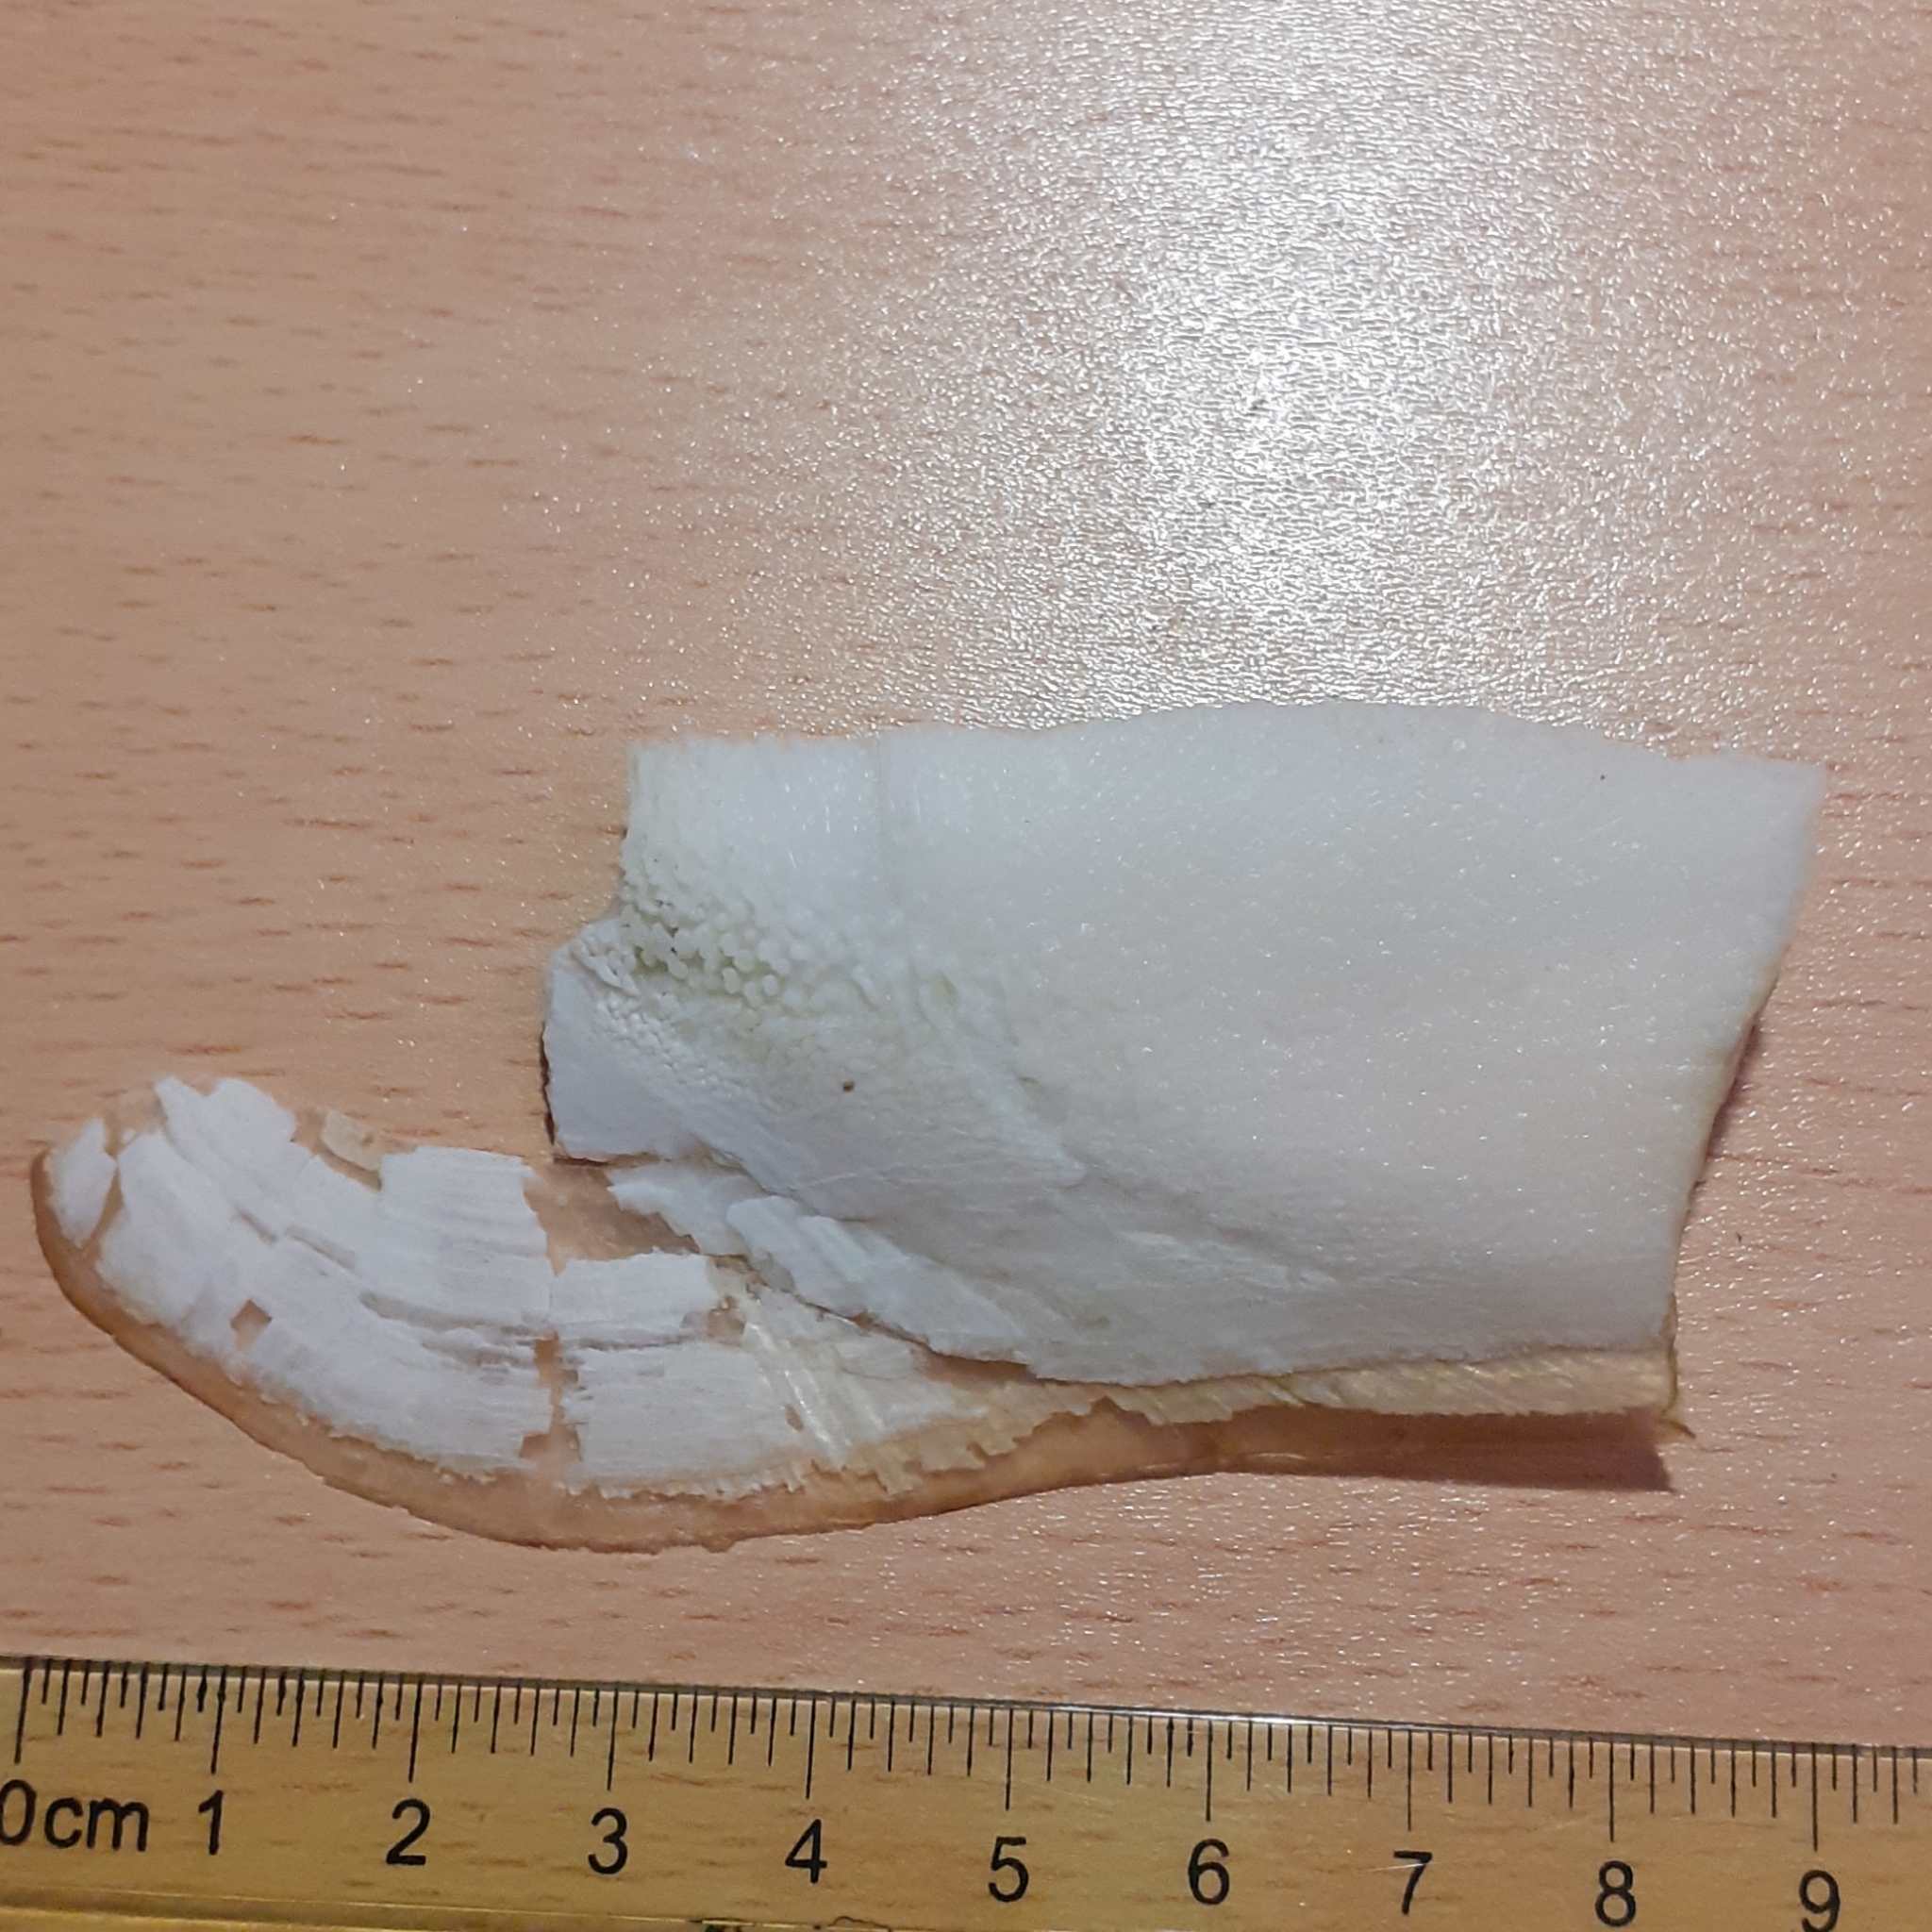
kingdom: Animalia
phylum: Mollusca
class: Cephalopoda
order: Sepiida
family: Sepiidae
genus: Sepia
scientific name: Sepia officinalis
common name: Common cuttlefish
